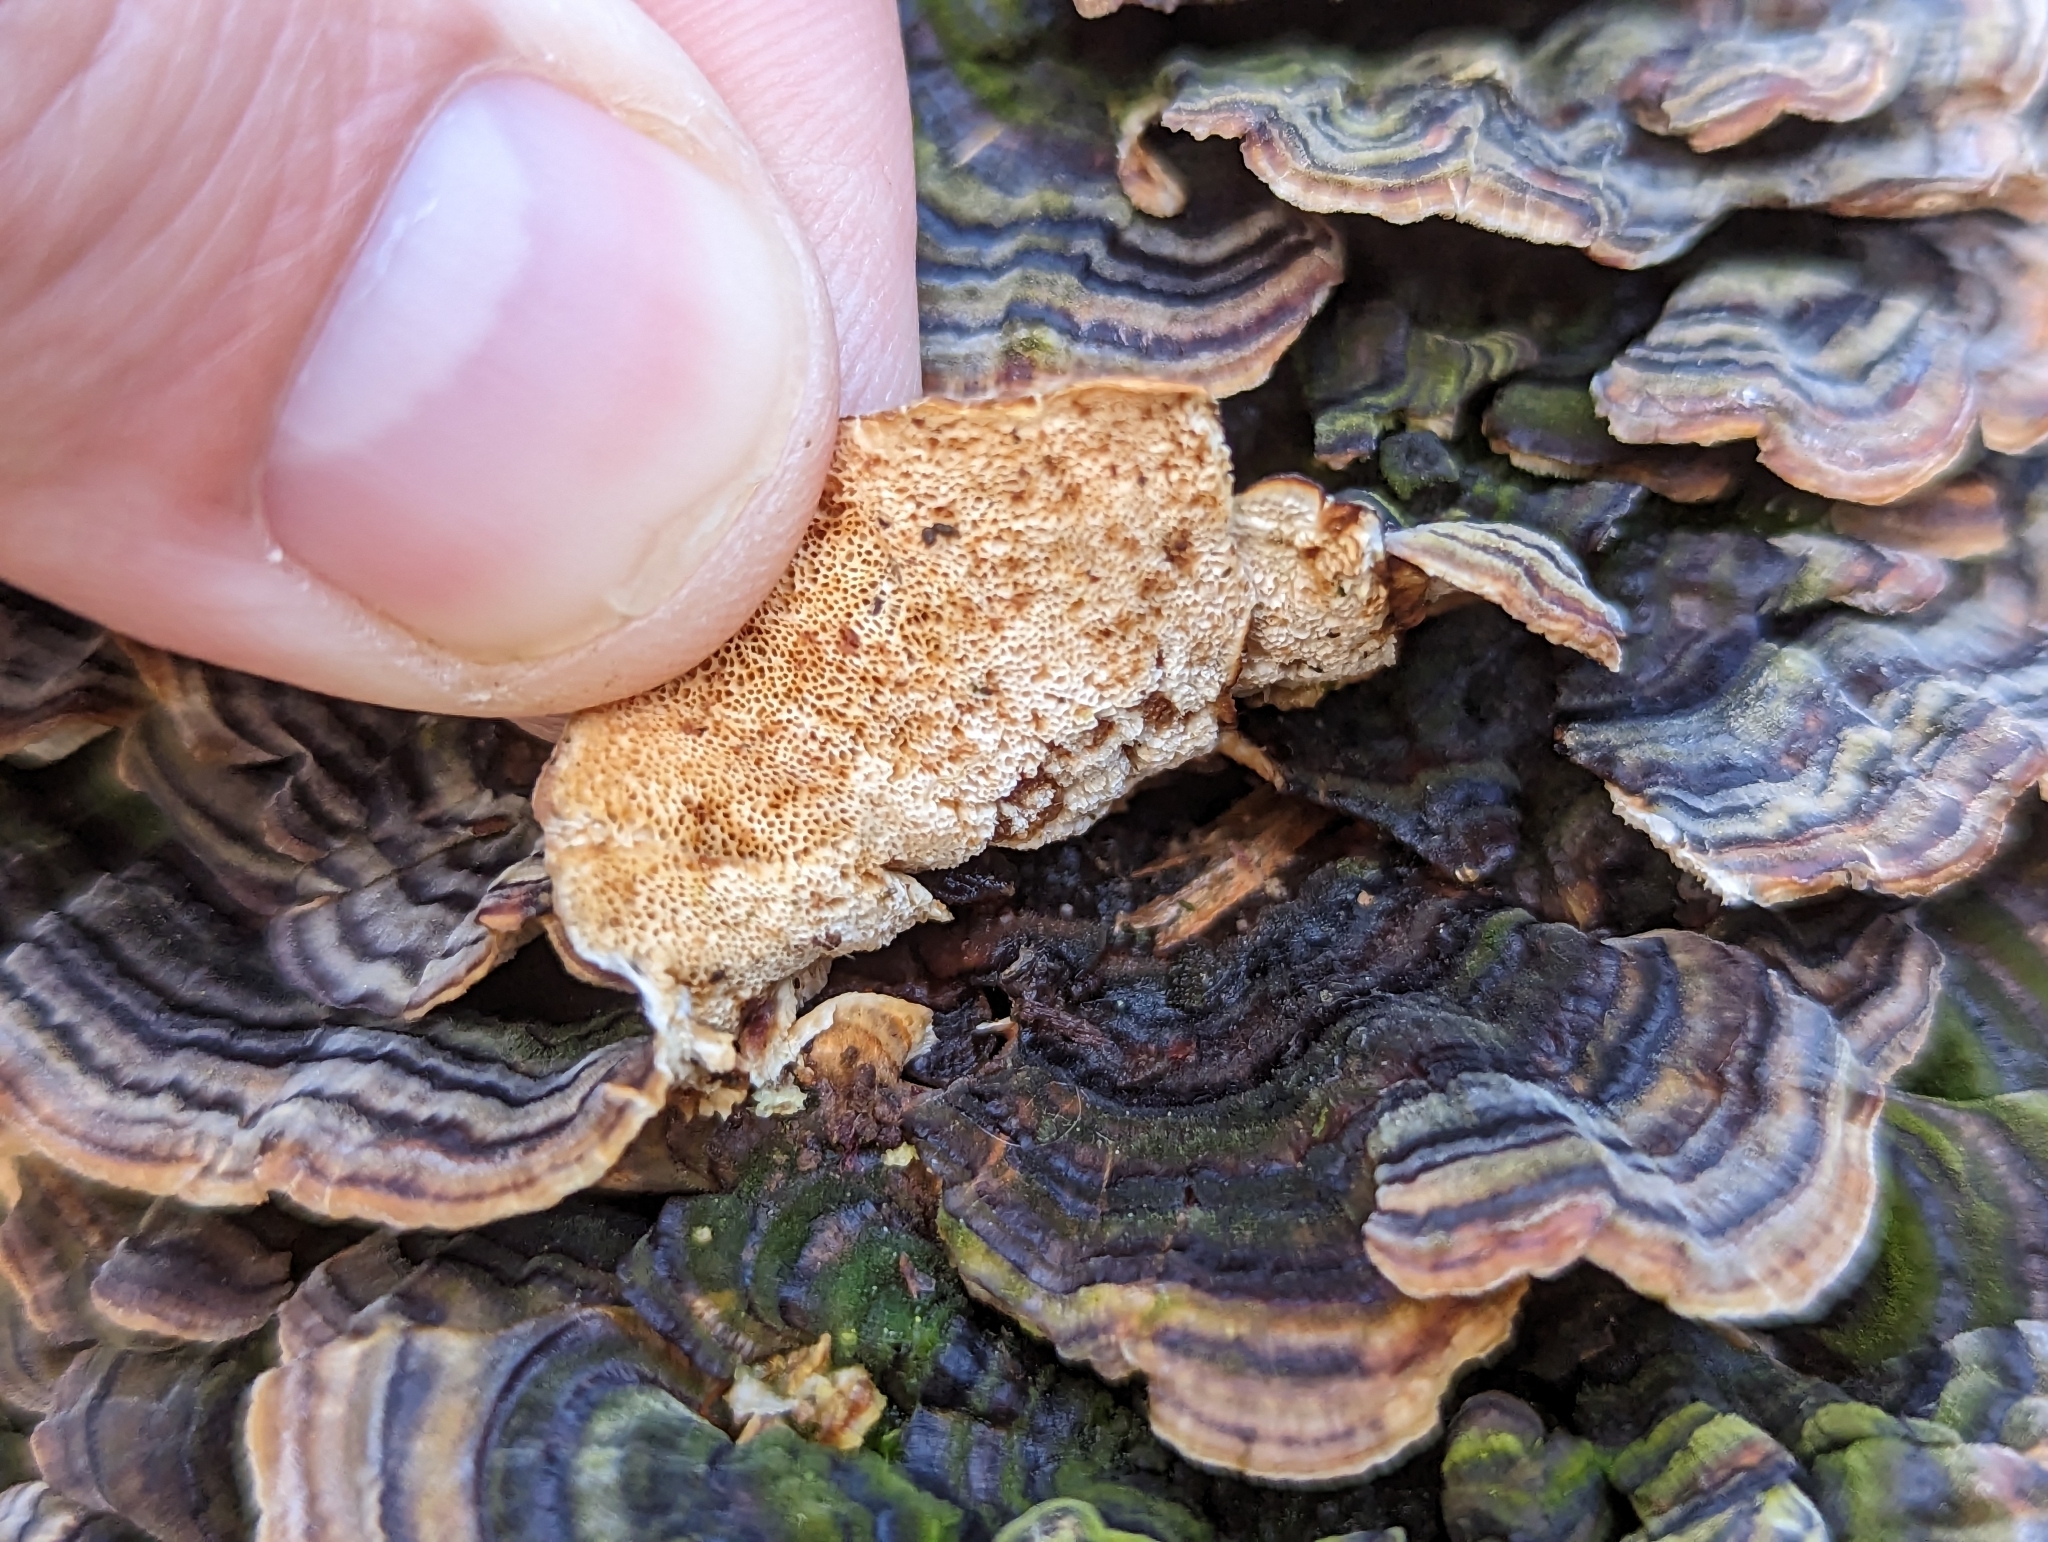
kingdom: Fungi
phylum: Basidiomycota
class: Agaricomycetes
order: Polyporales
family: Polyporaceae
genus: Trametes
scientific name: Trametes versicolor
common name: Turkeytail
